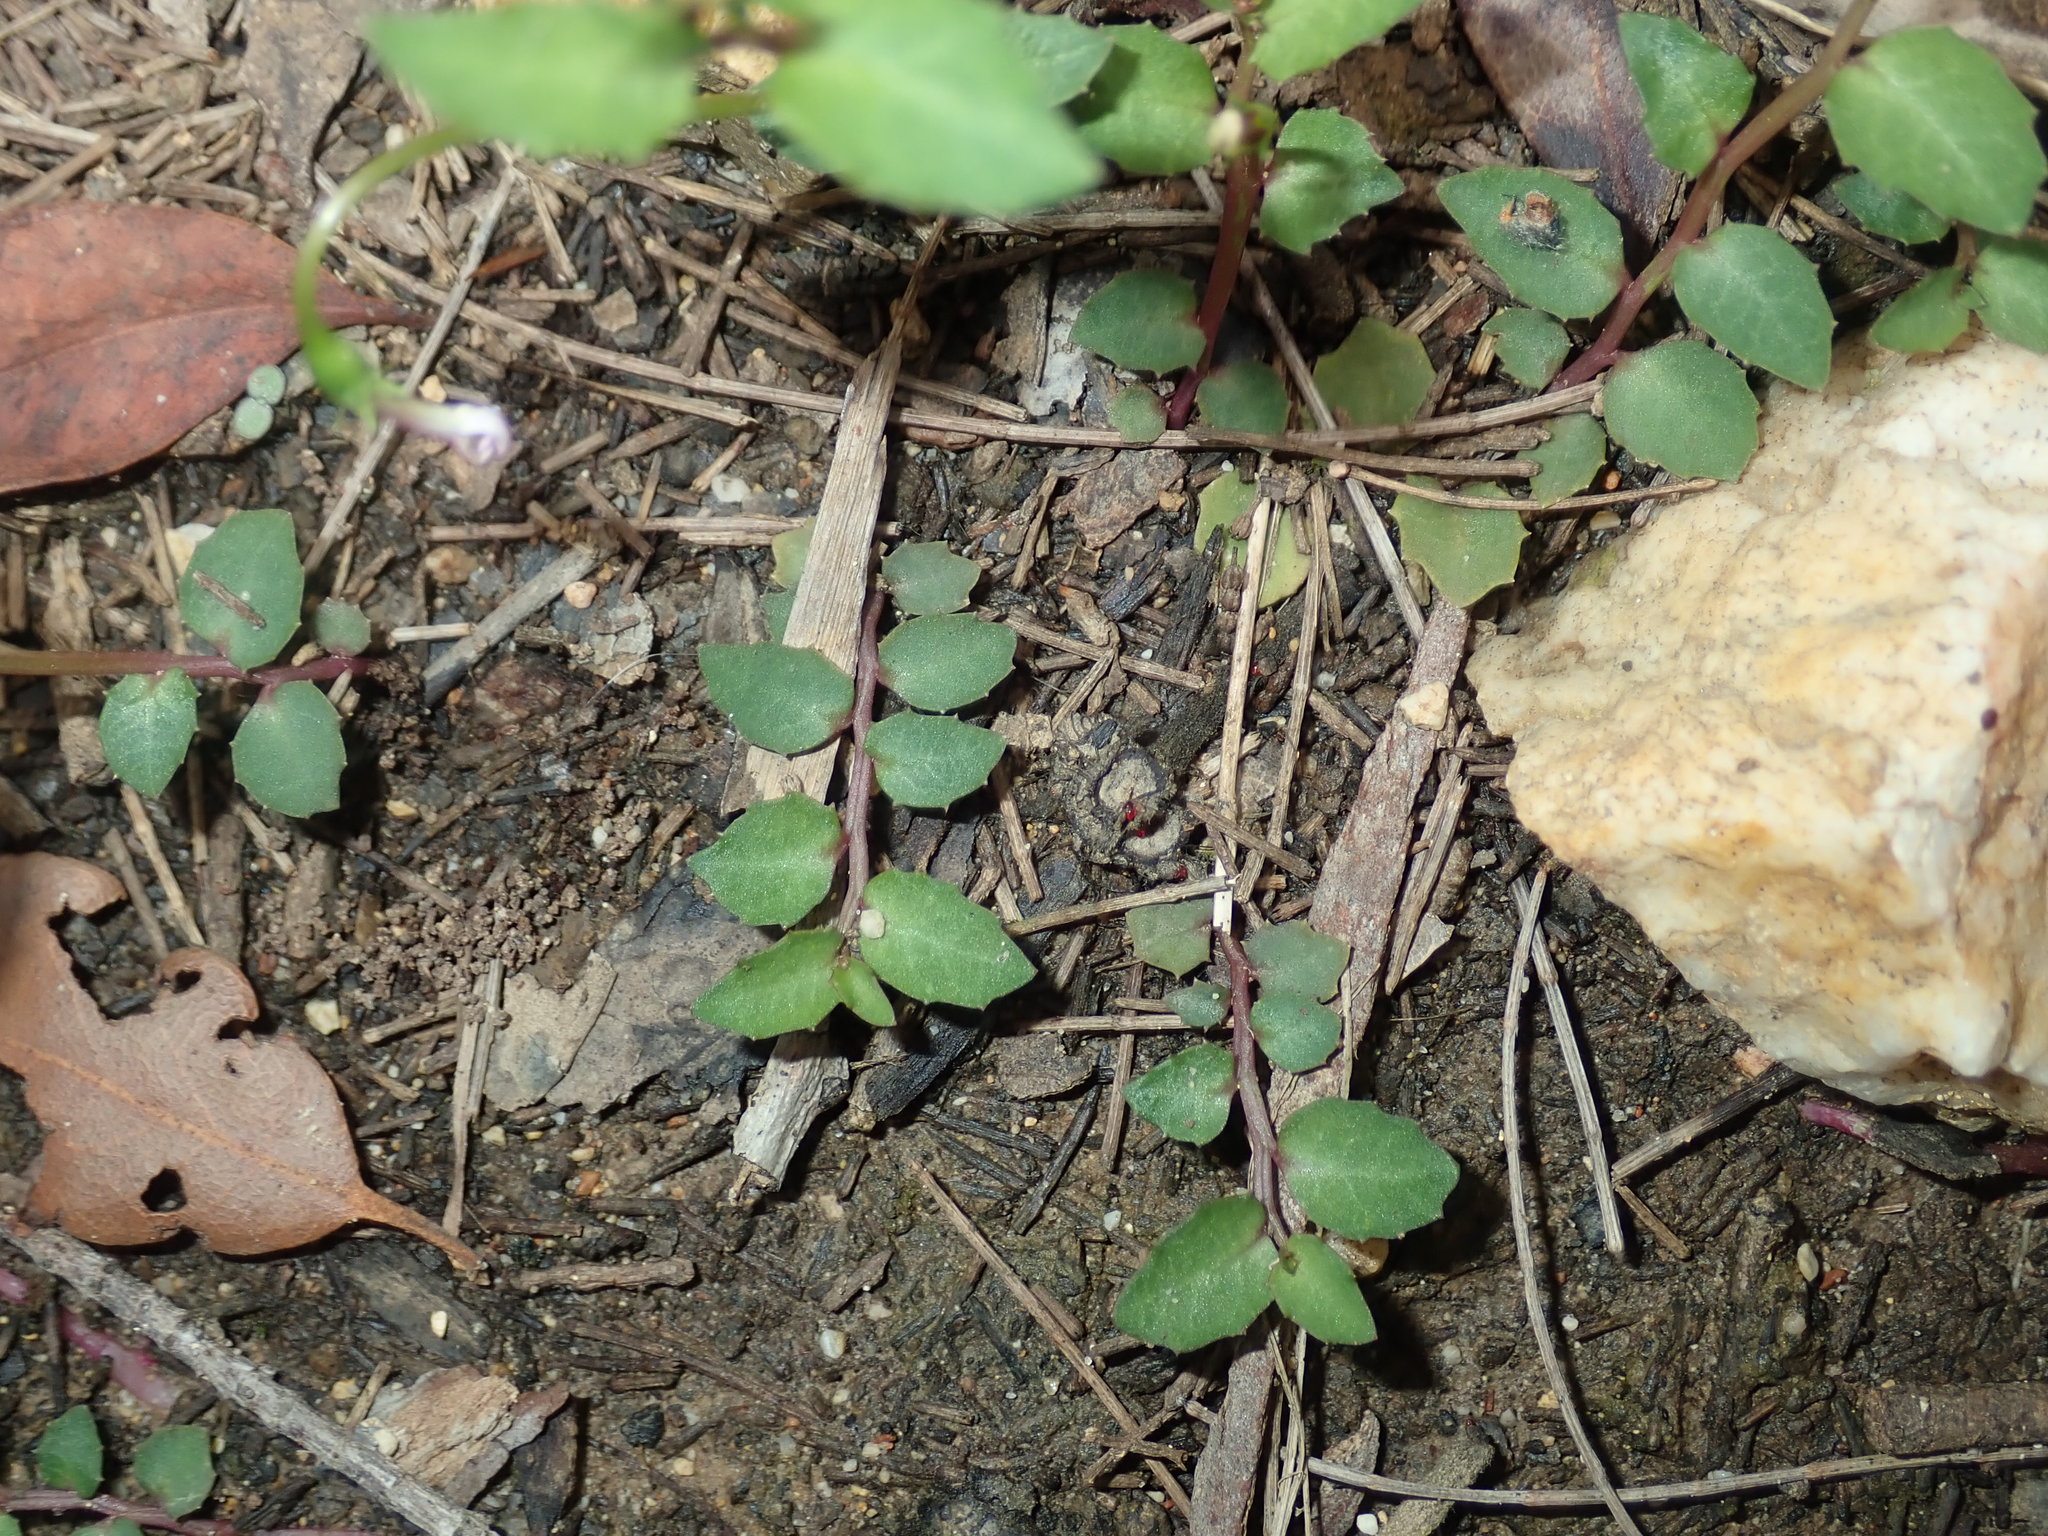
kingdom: Plantae
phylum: Tracheophyta
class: Magnoliopsida
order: Asterales
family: Campanulaceae
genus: Lobelia
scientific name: Lobelia purpurascens
